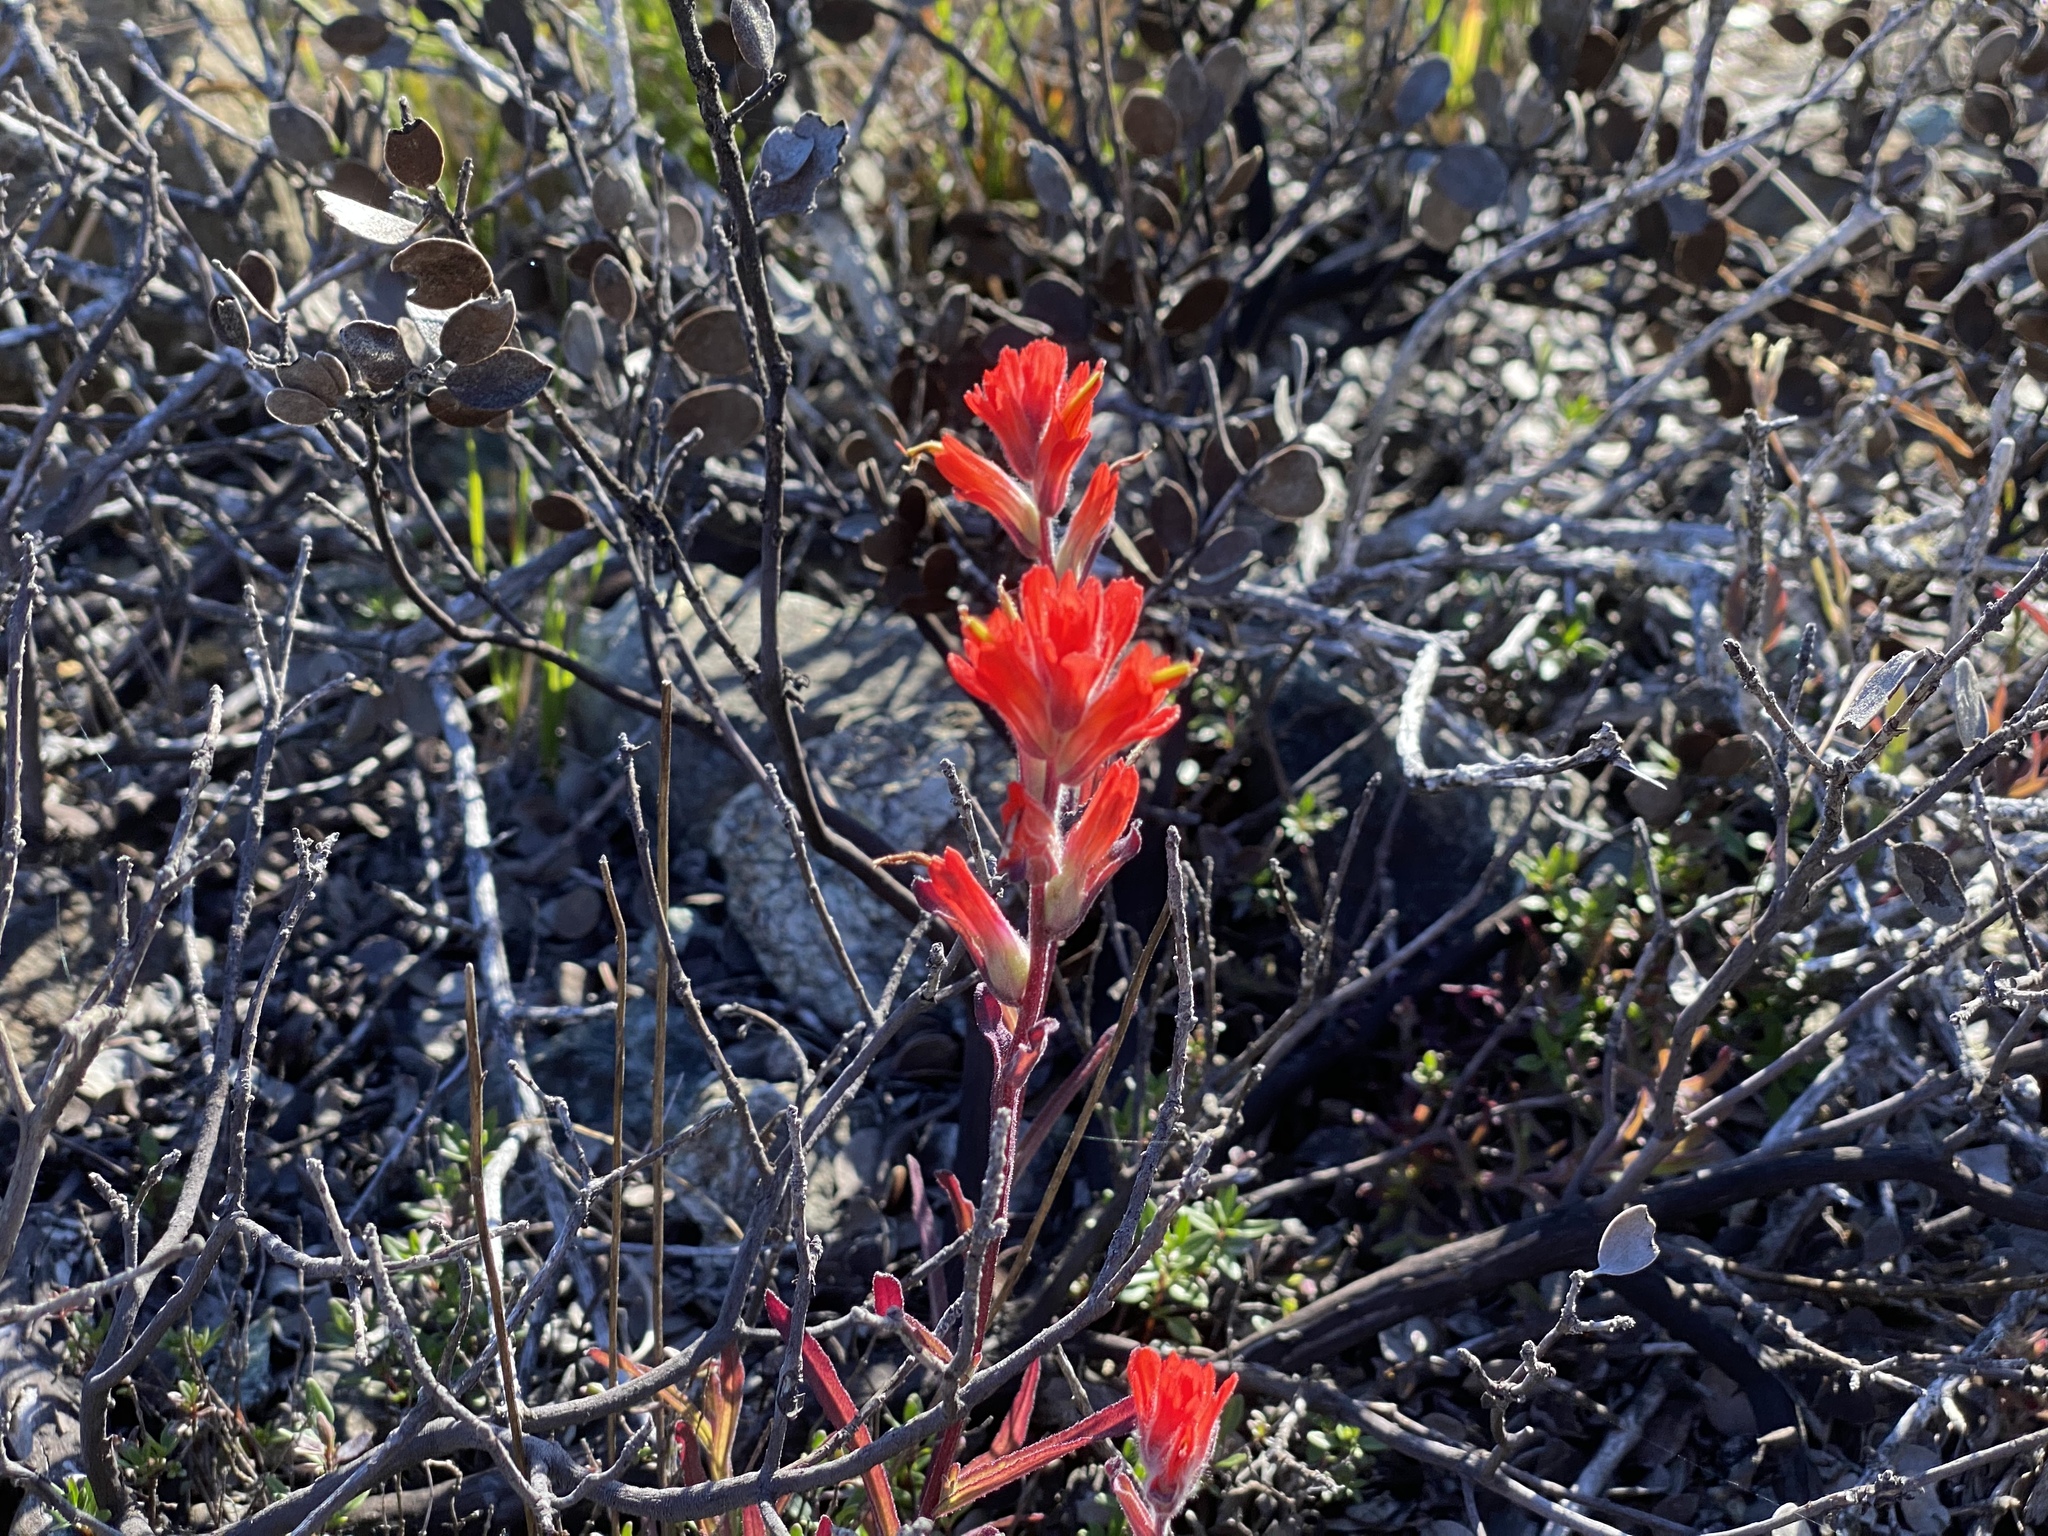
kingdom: Plantae
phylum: Tracheophyta
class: Magnoliopsida
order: Lamiales
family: Orobanchaceae
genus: Castilleja
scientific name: Castilleja affinis
